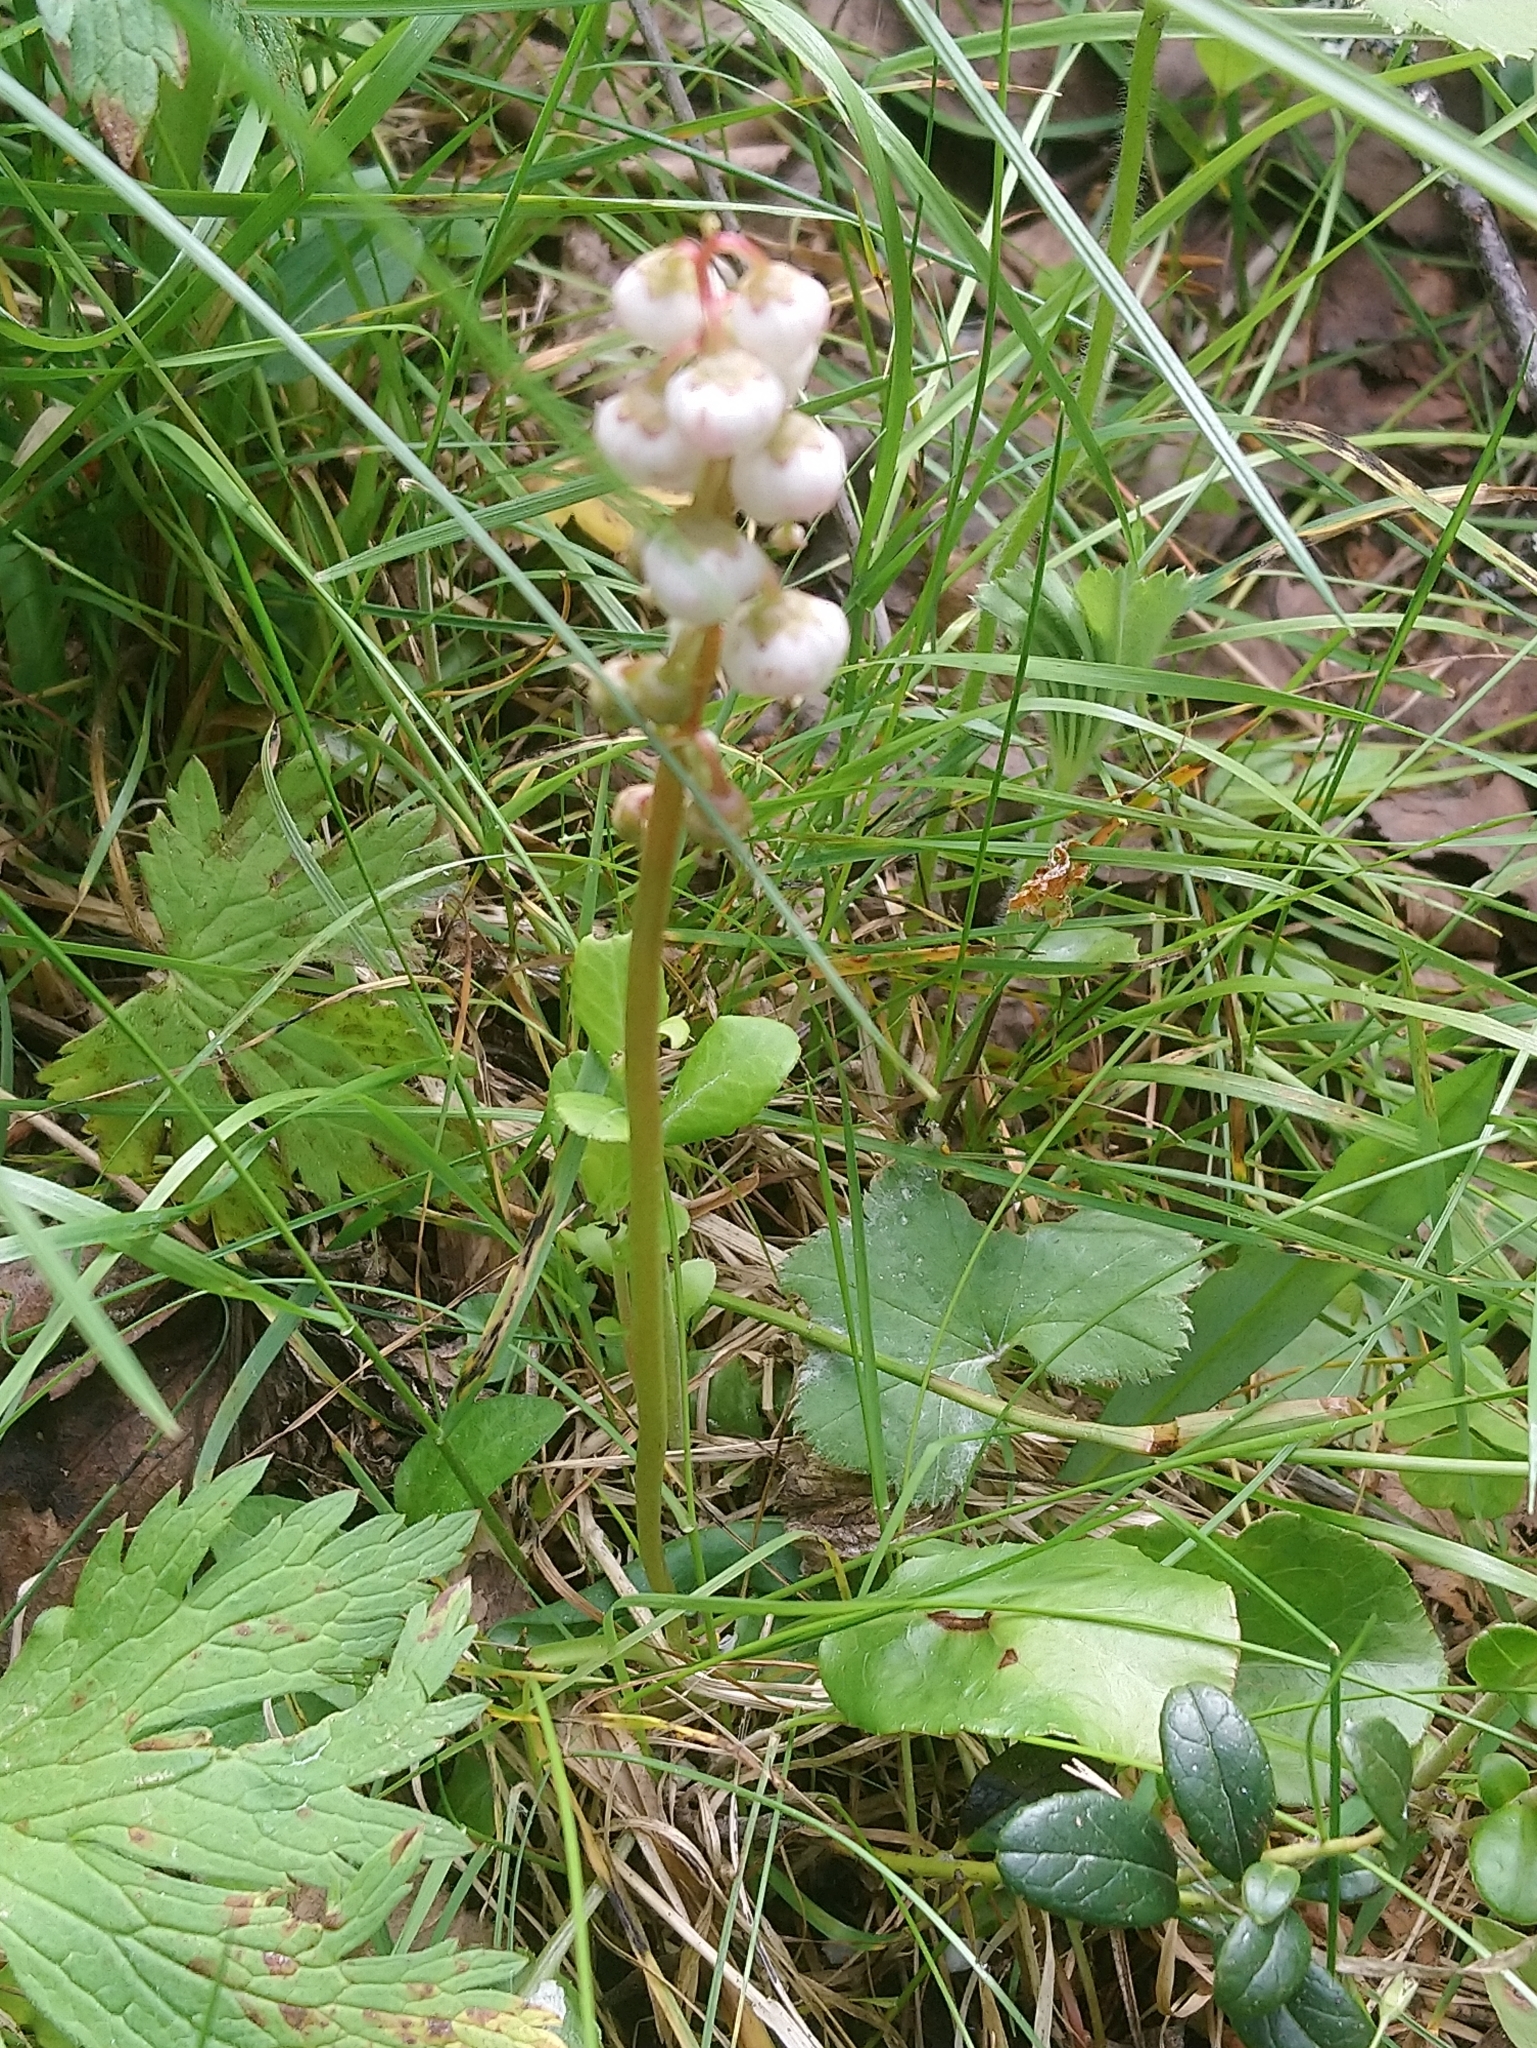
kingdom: Plantae
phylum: Tracheophyta
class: Magnoliopsida
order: Ericales
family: Ericaceae
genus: Pyrola
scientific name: Pyrola minor
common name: Common wintergreen
